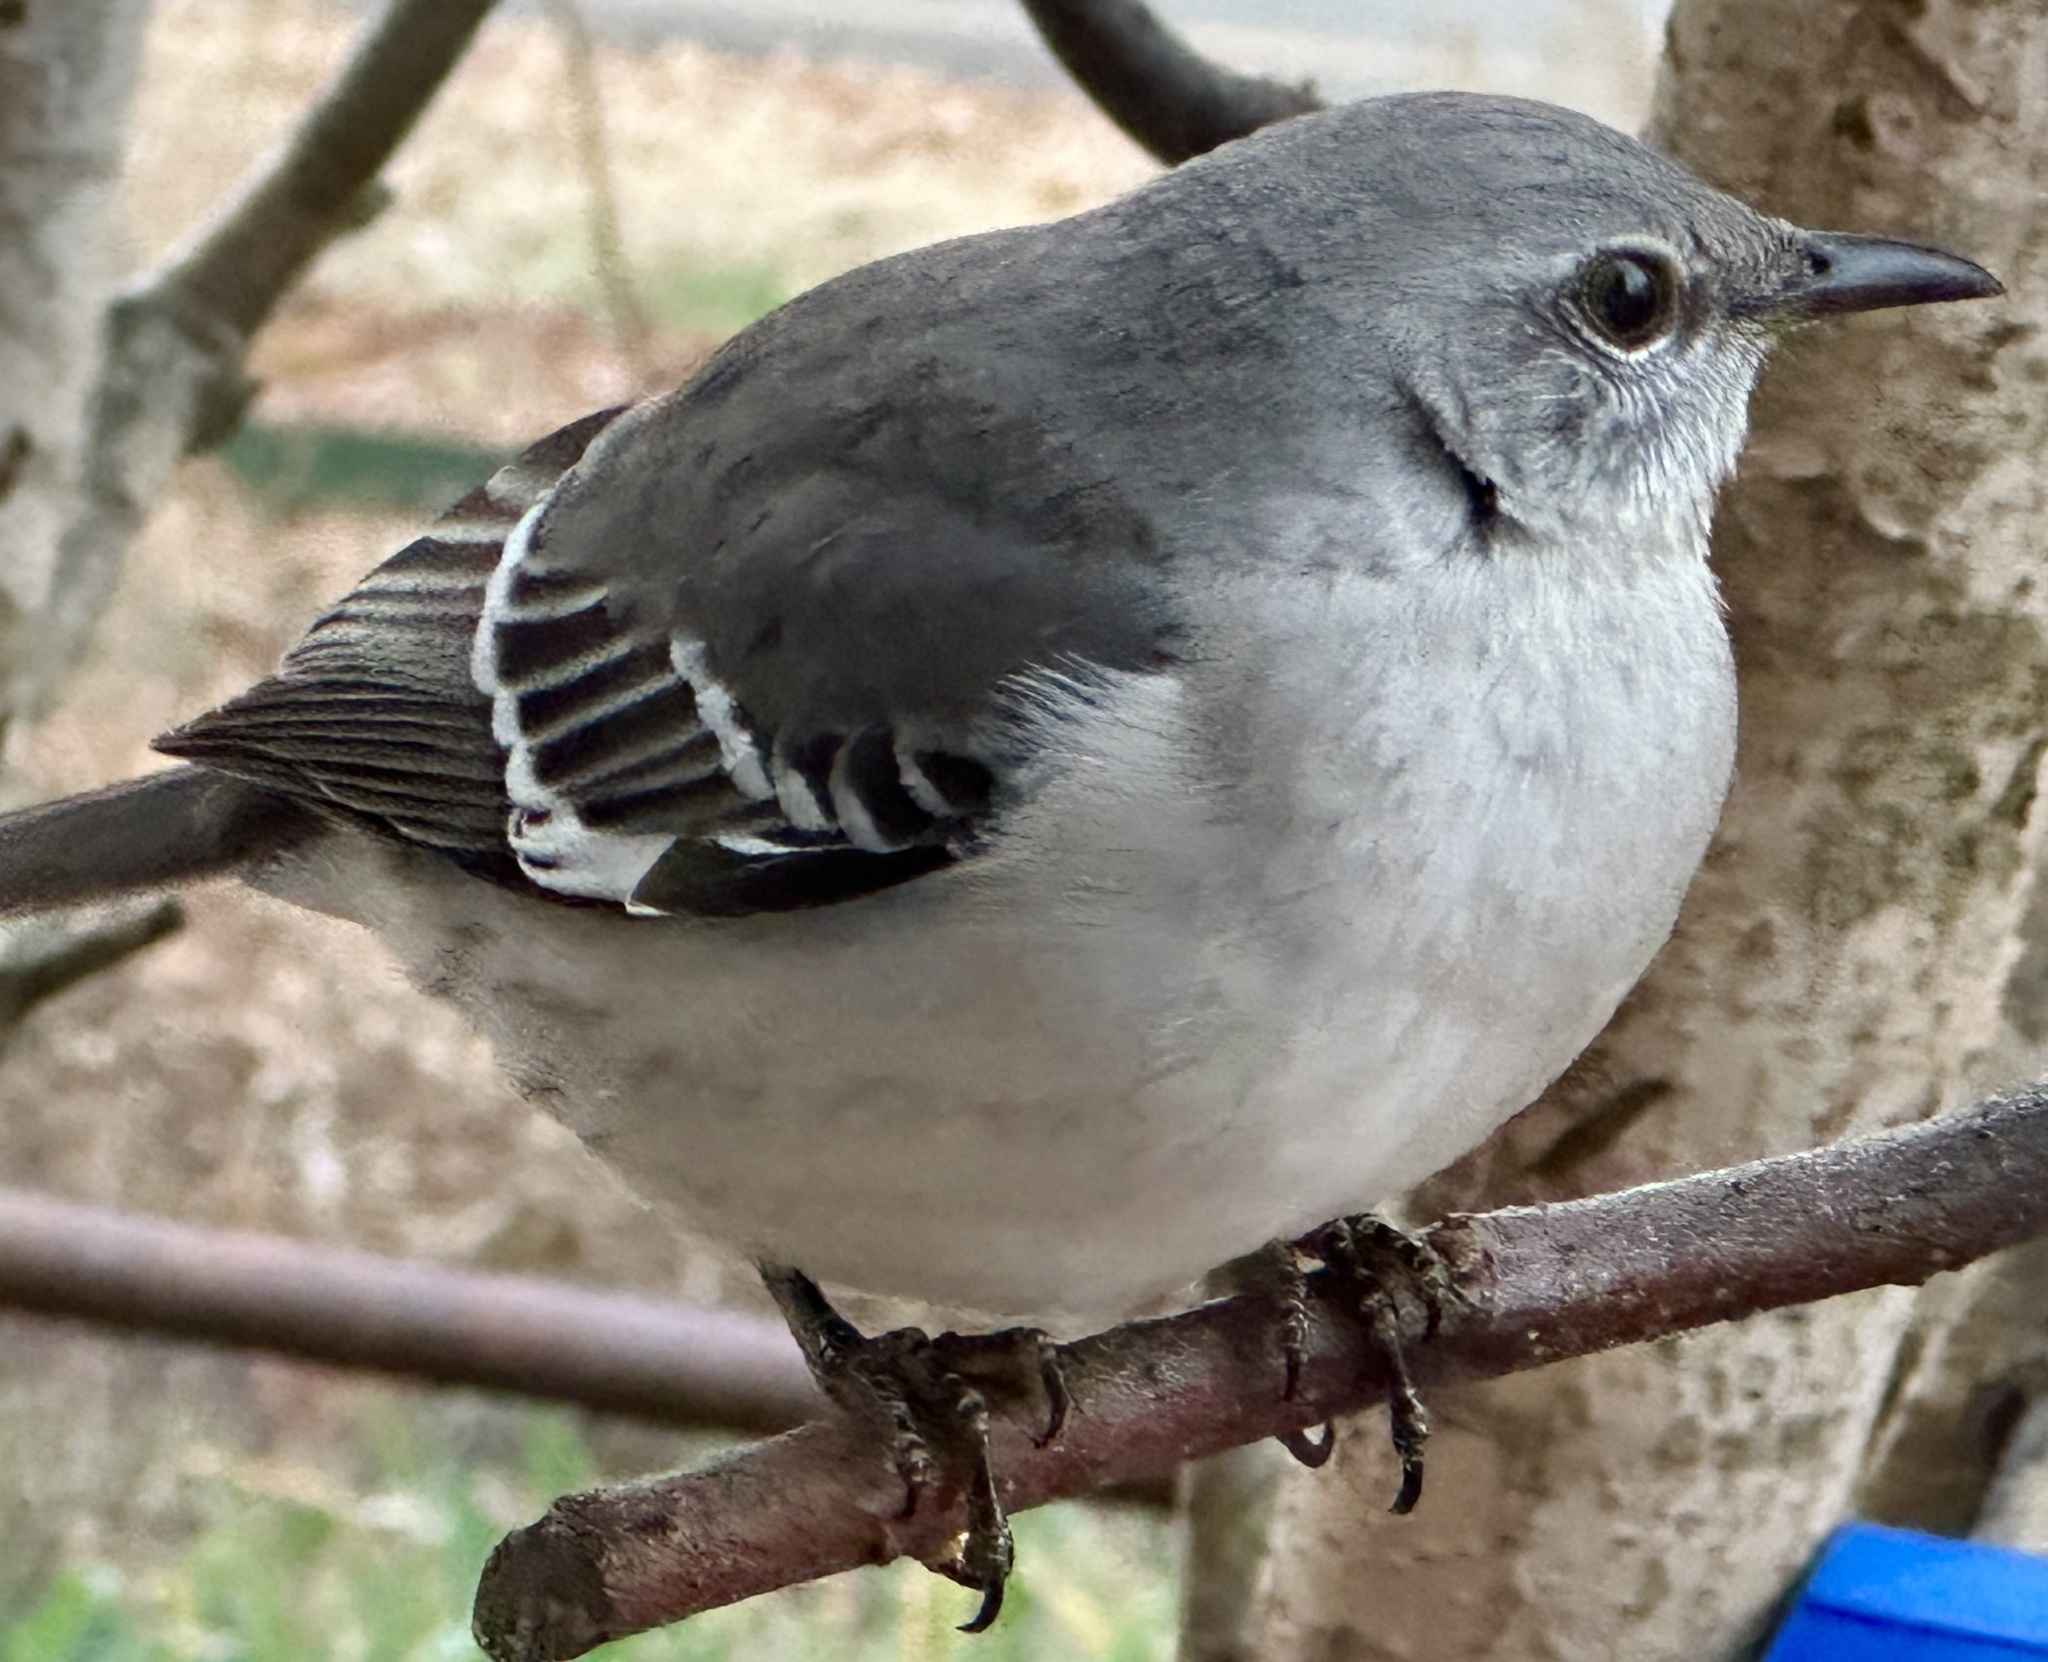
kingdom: Animalia
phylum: Chordata
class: Aves
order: Passeriformes
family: Mimidae
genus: Mimus
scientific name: Mimus polyglottos
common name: Northern mockingbird
